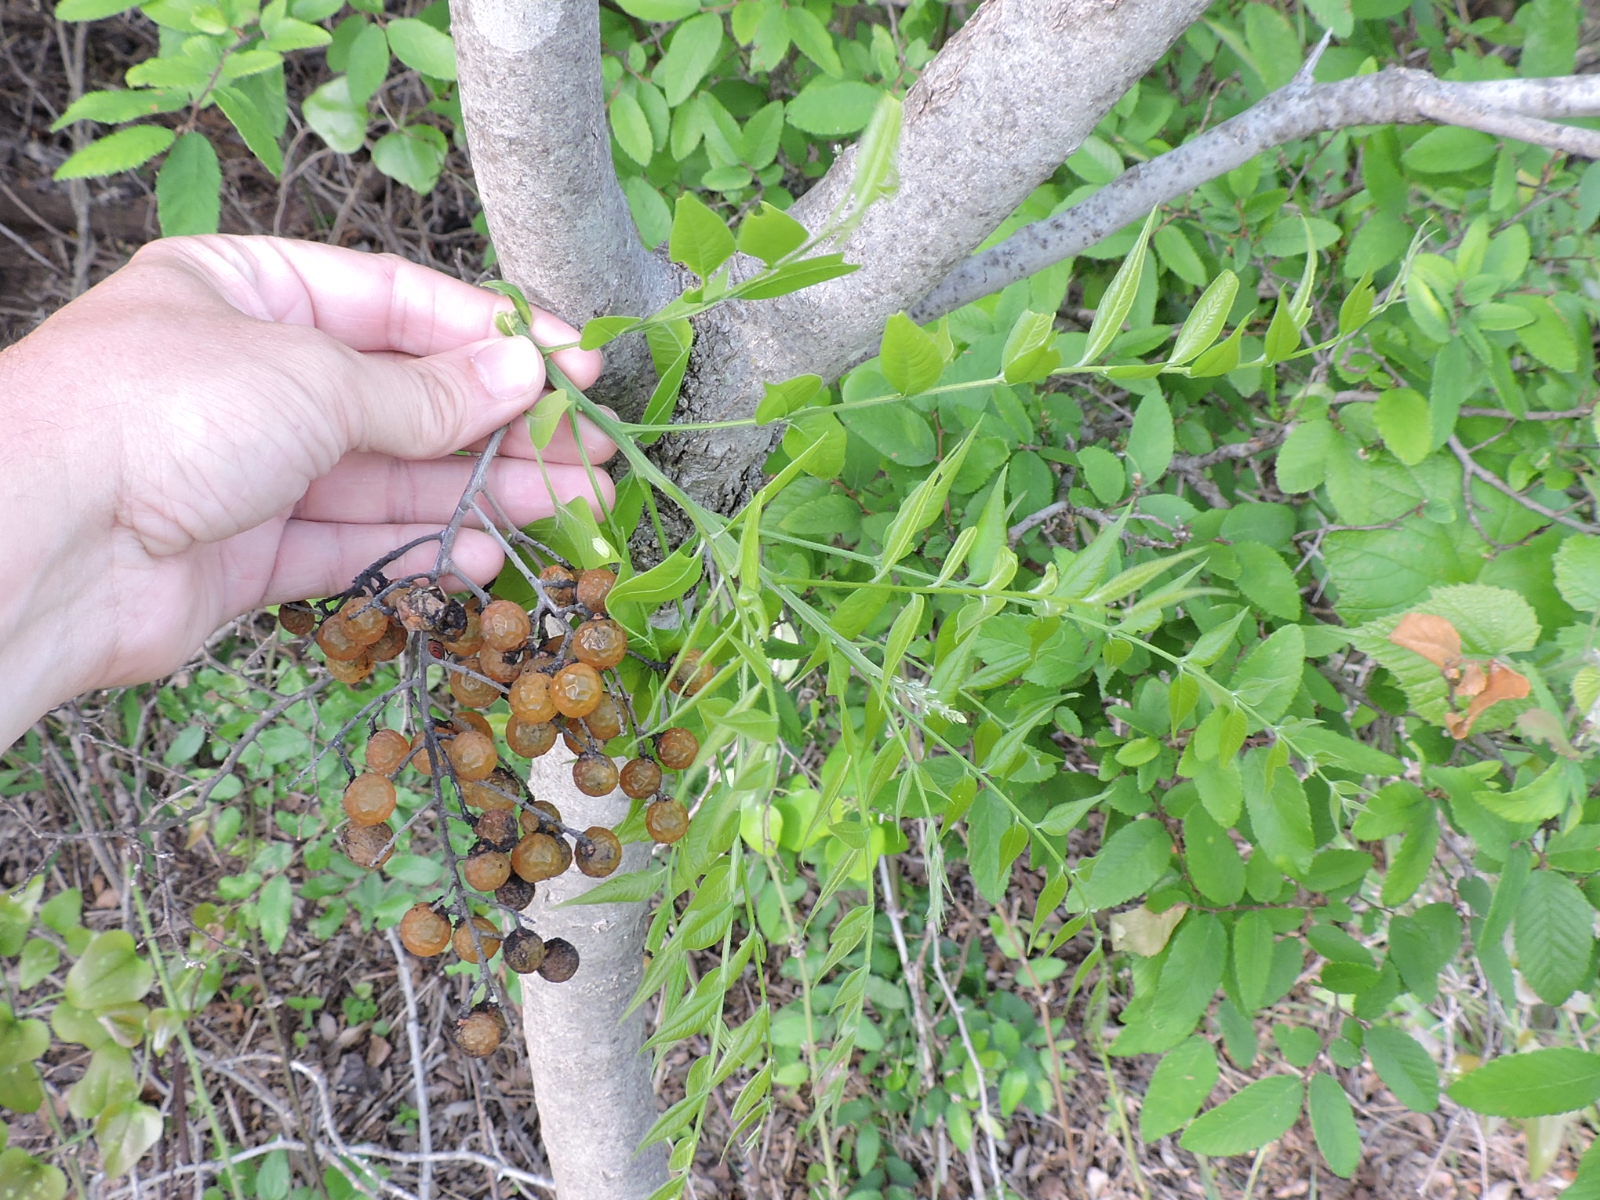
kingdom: Plantae
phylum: Tracheophyta
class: Magnoliopsida
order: Sapindales
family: Sapindaceae
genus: Sapindus
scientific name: Sapindus drummondii
